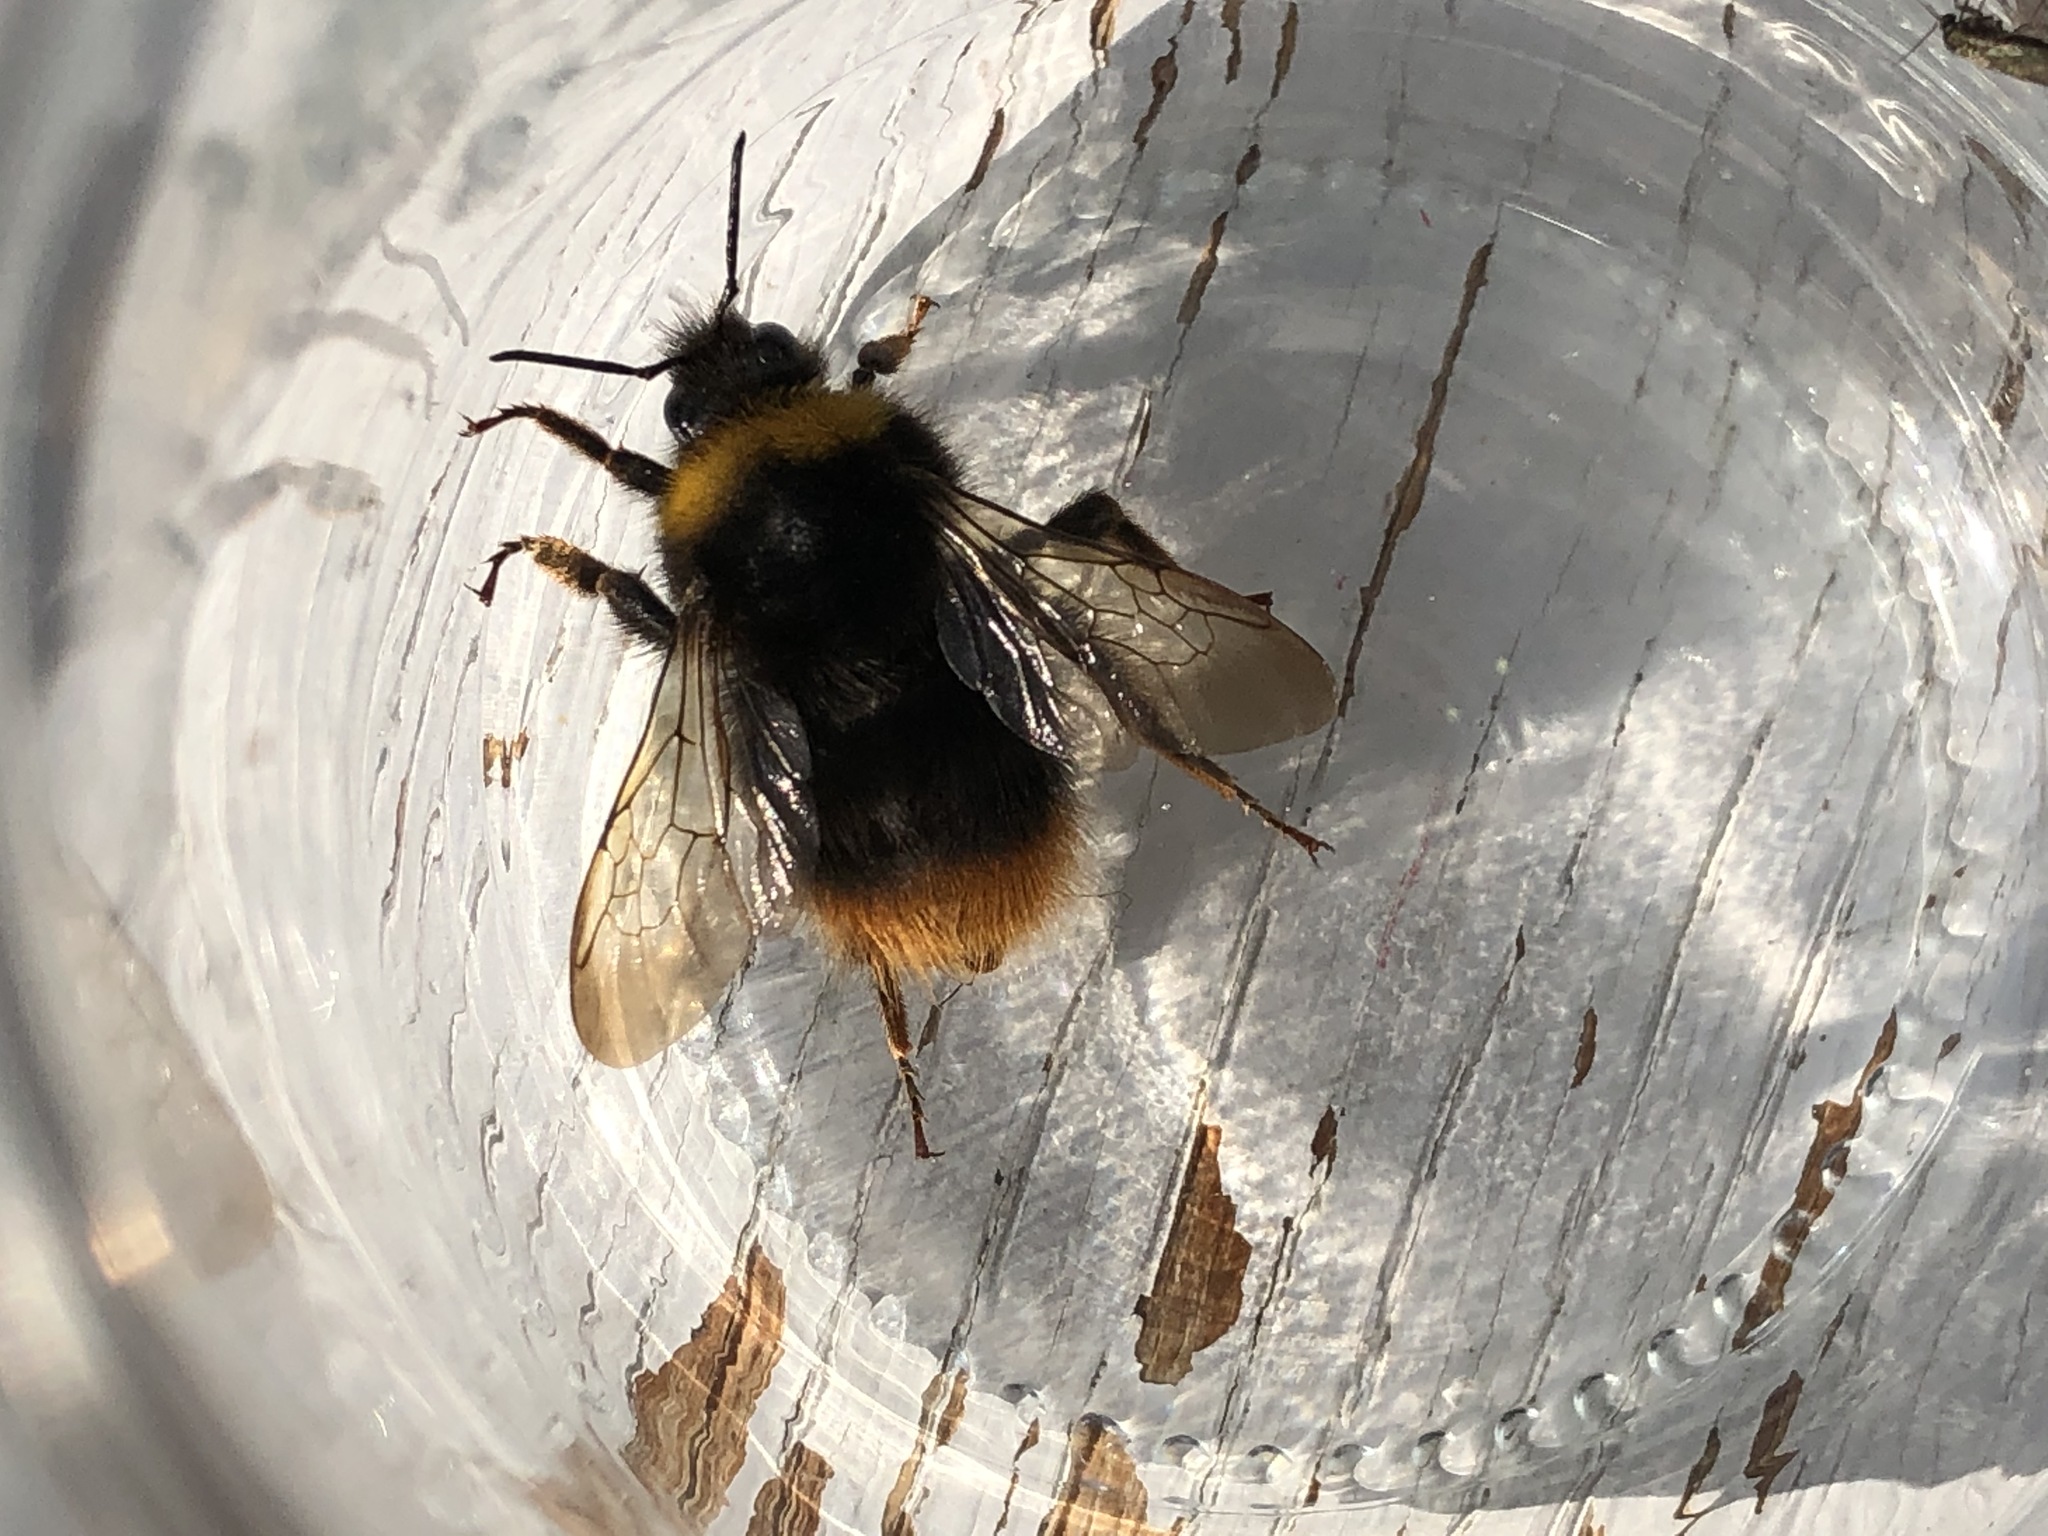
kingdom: Animalia
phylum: Arthropoda
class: Insecta
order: Hymenoptera
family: Apidae
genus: Bombus
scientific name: Bombus pratorum
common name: Early humble-bee
